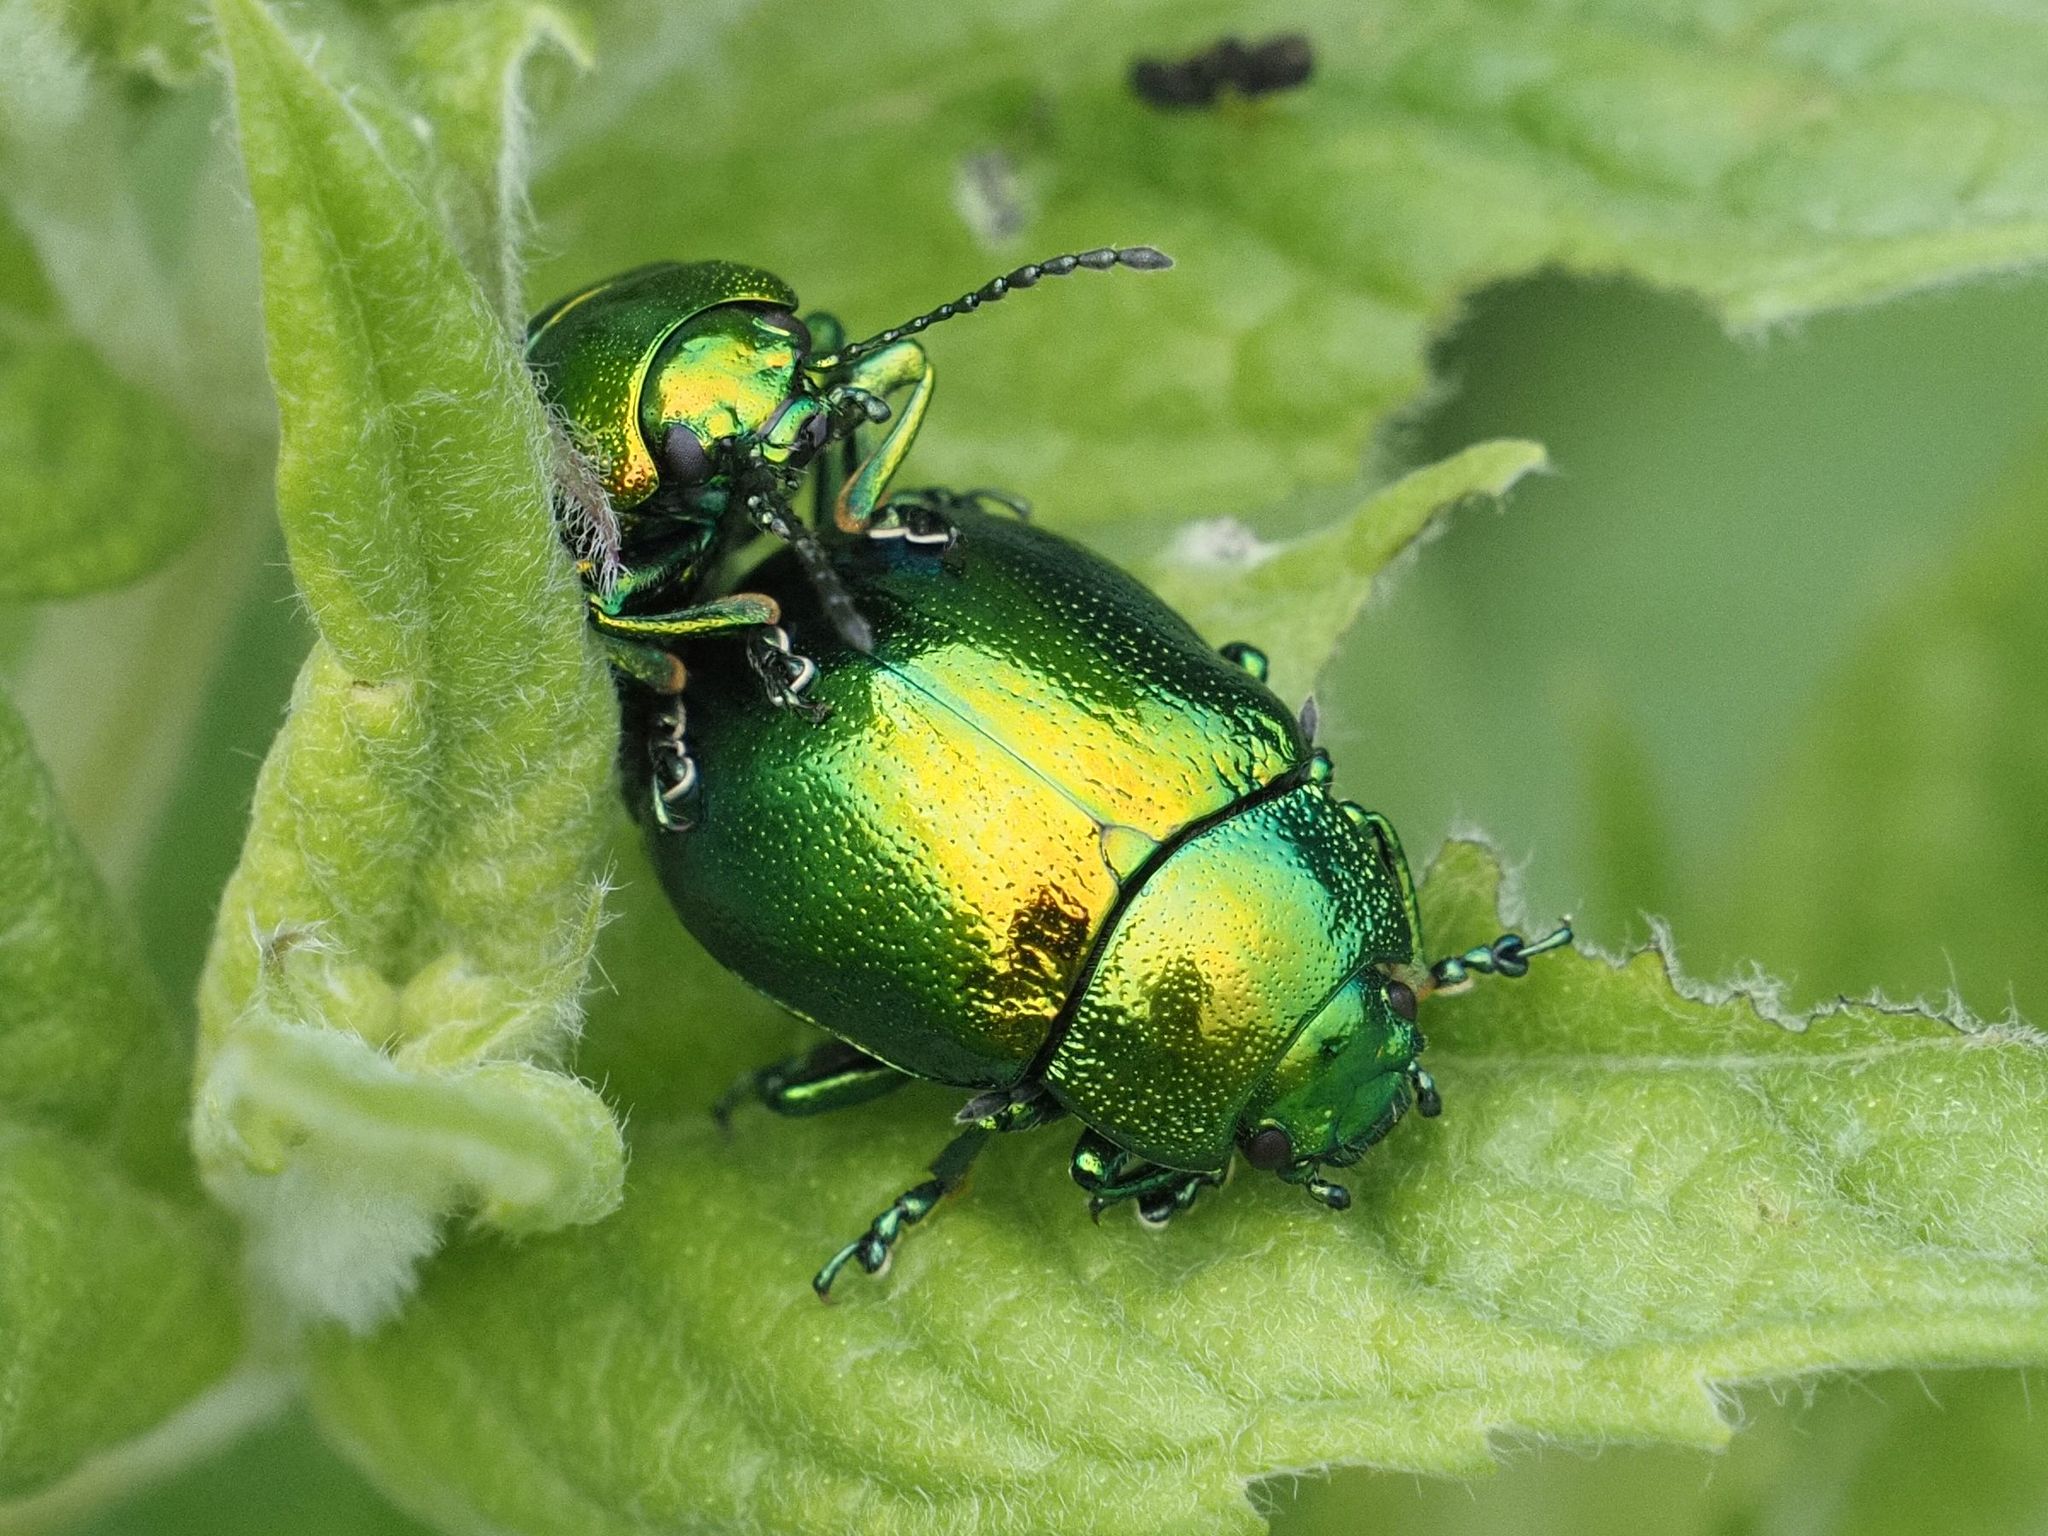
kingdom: Animalia
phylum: Arthropoda
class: Insecta
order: Coleoptera
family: Chrysomelidae
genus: Chrysolina
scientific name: Chrysolina herbacea
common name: Mint leaf beatle
